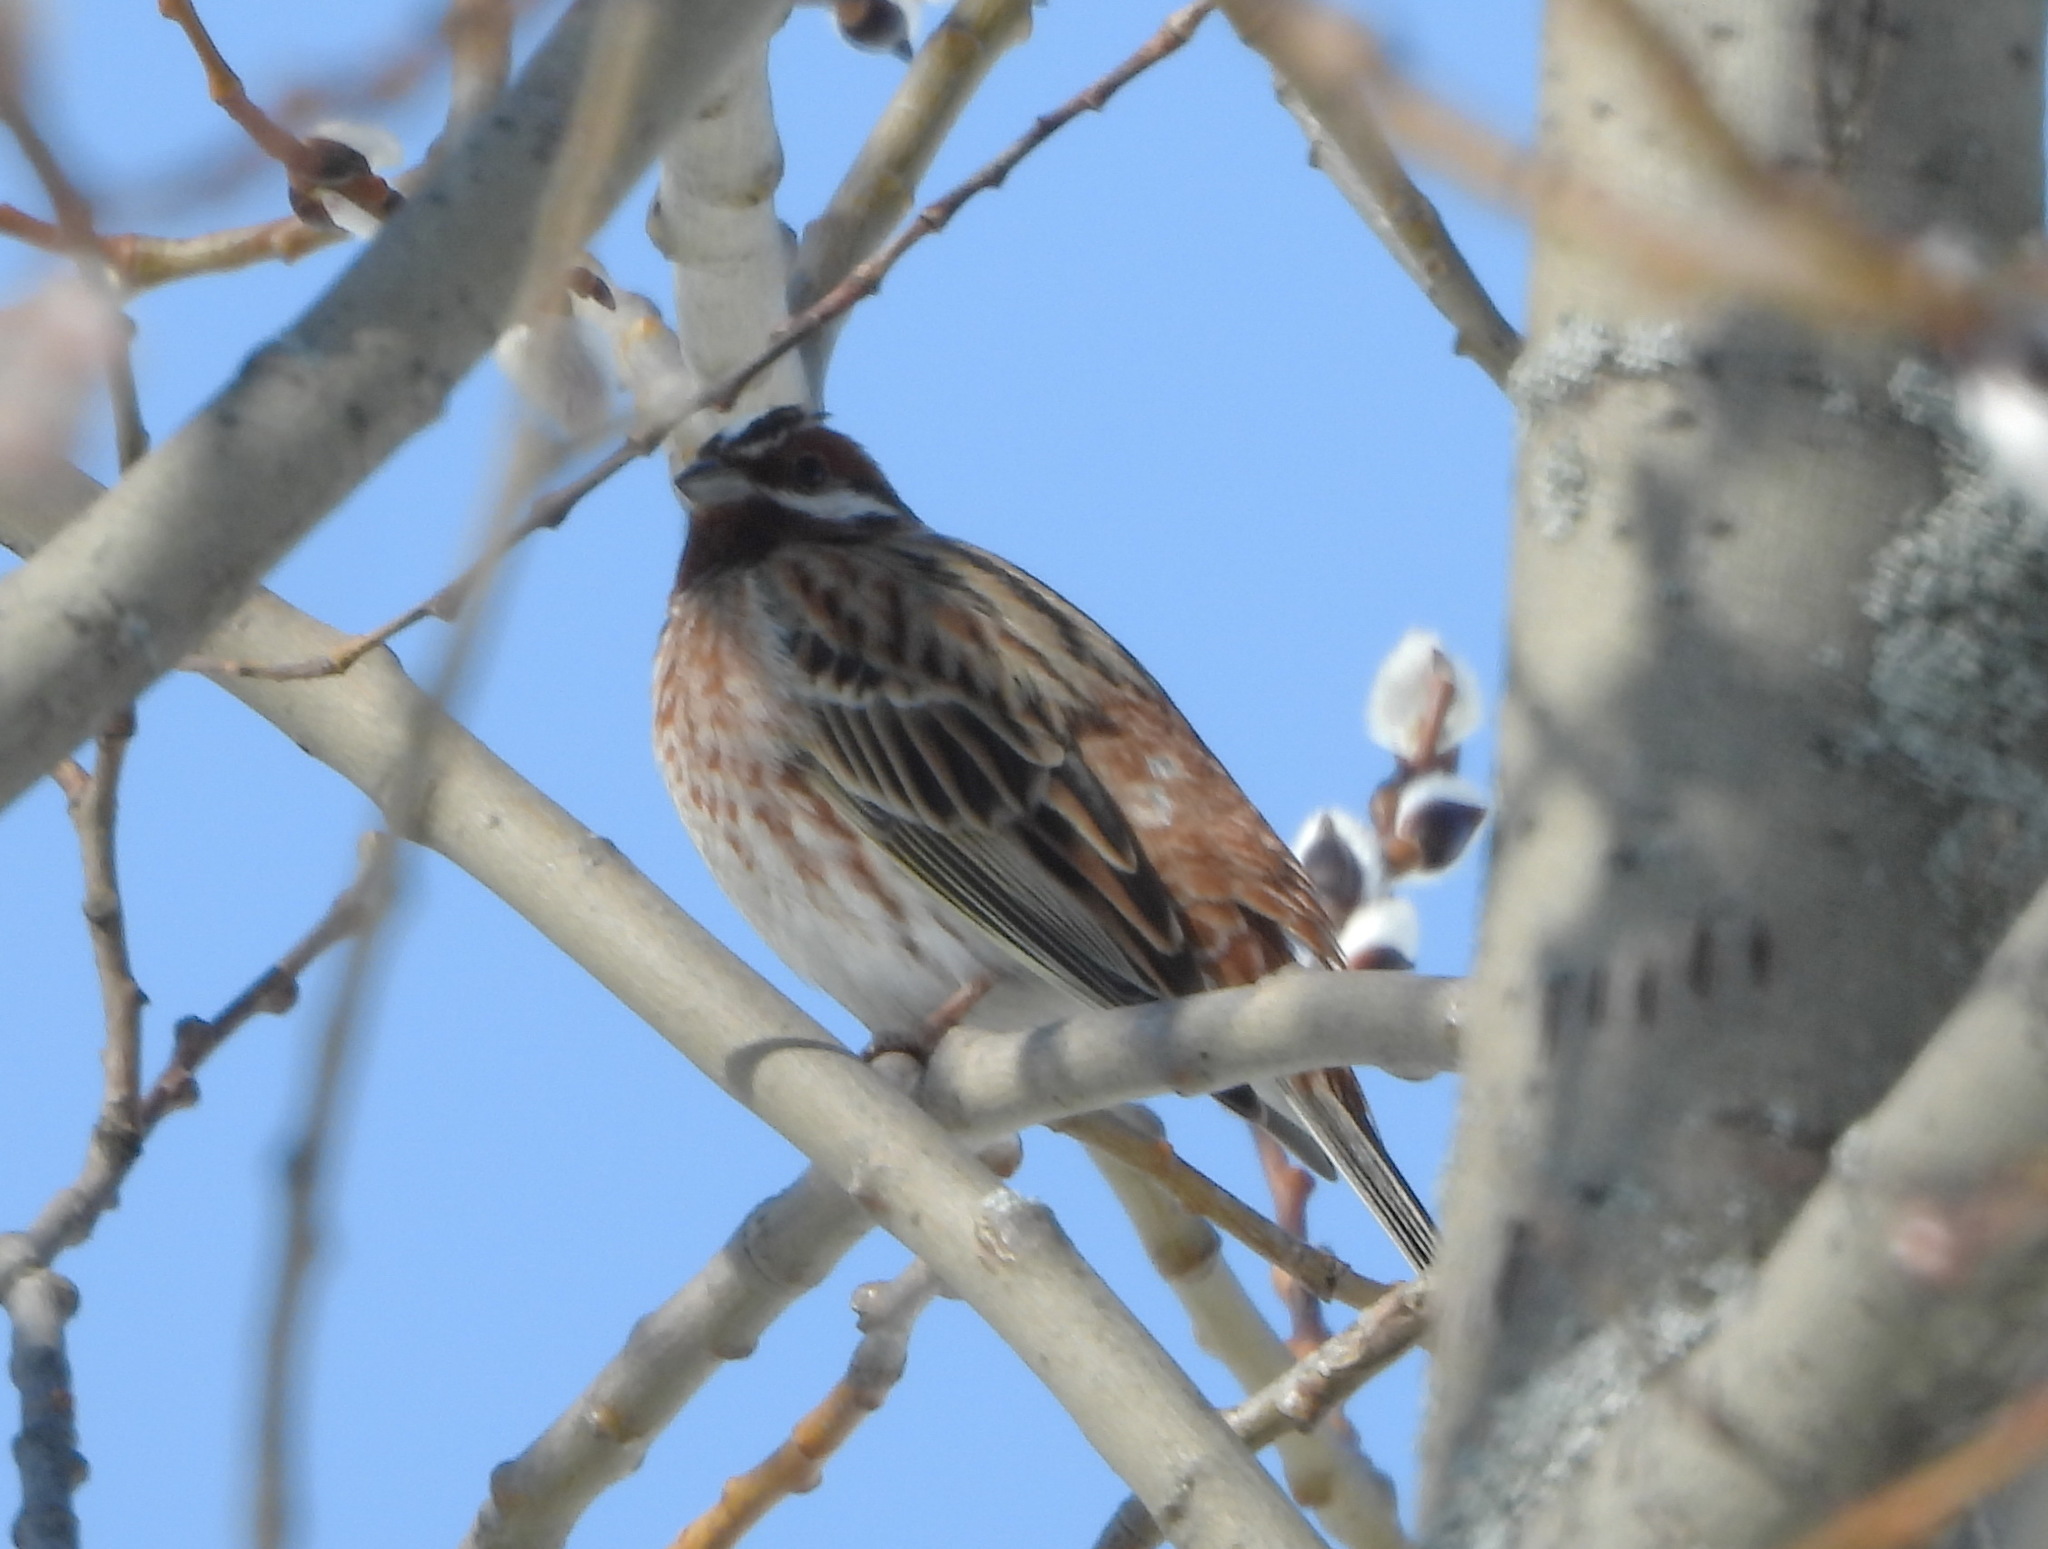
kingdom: Animalia
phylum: Chordata
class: Aves
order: Passeriformes
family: Emberizidae
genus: Emberiza
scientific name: Emberiza leucocephalos
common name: Pine bunting
